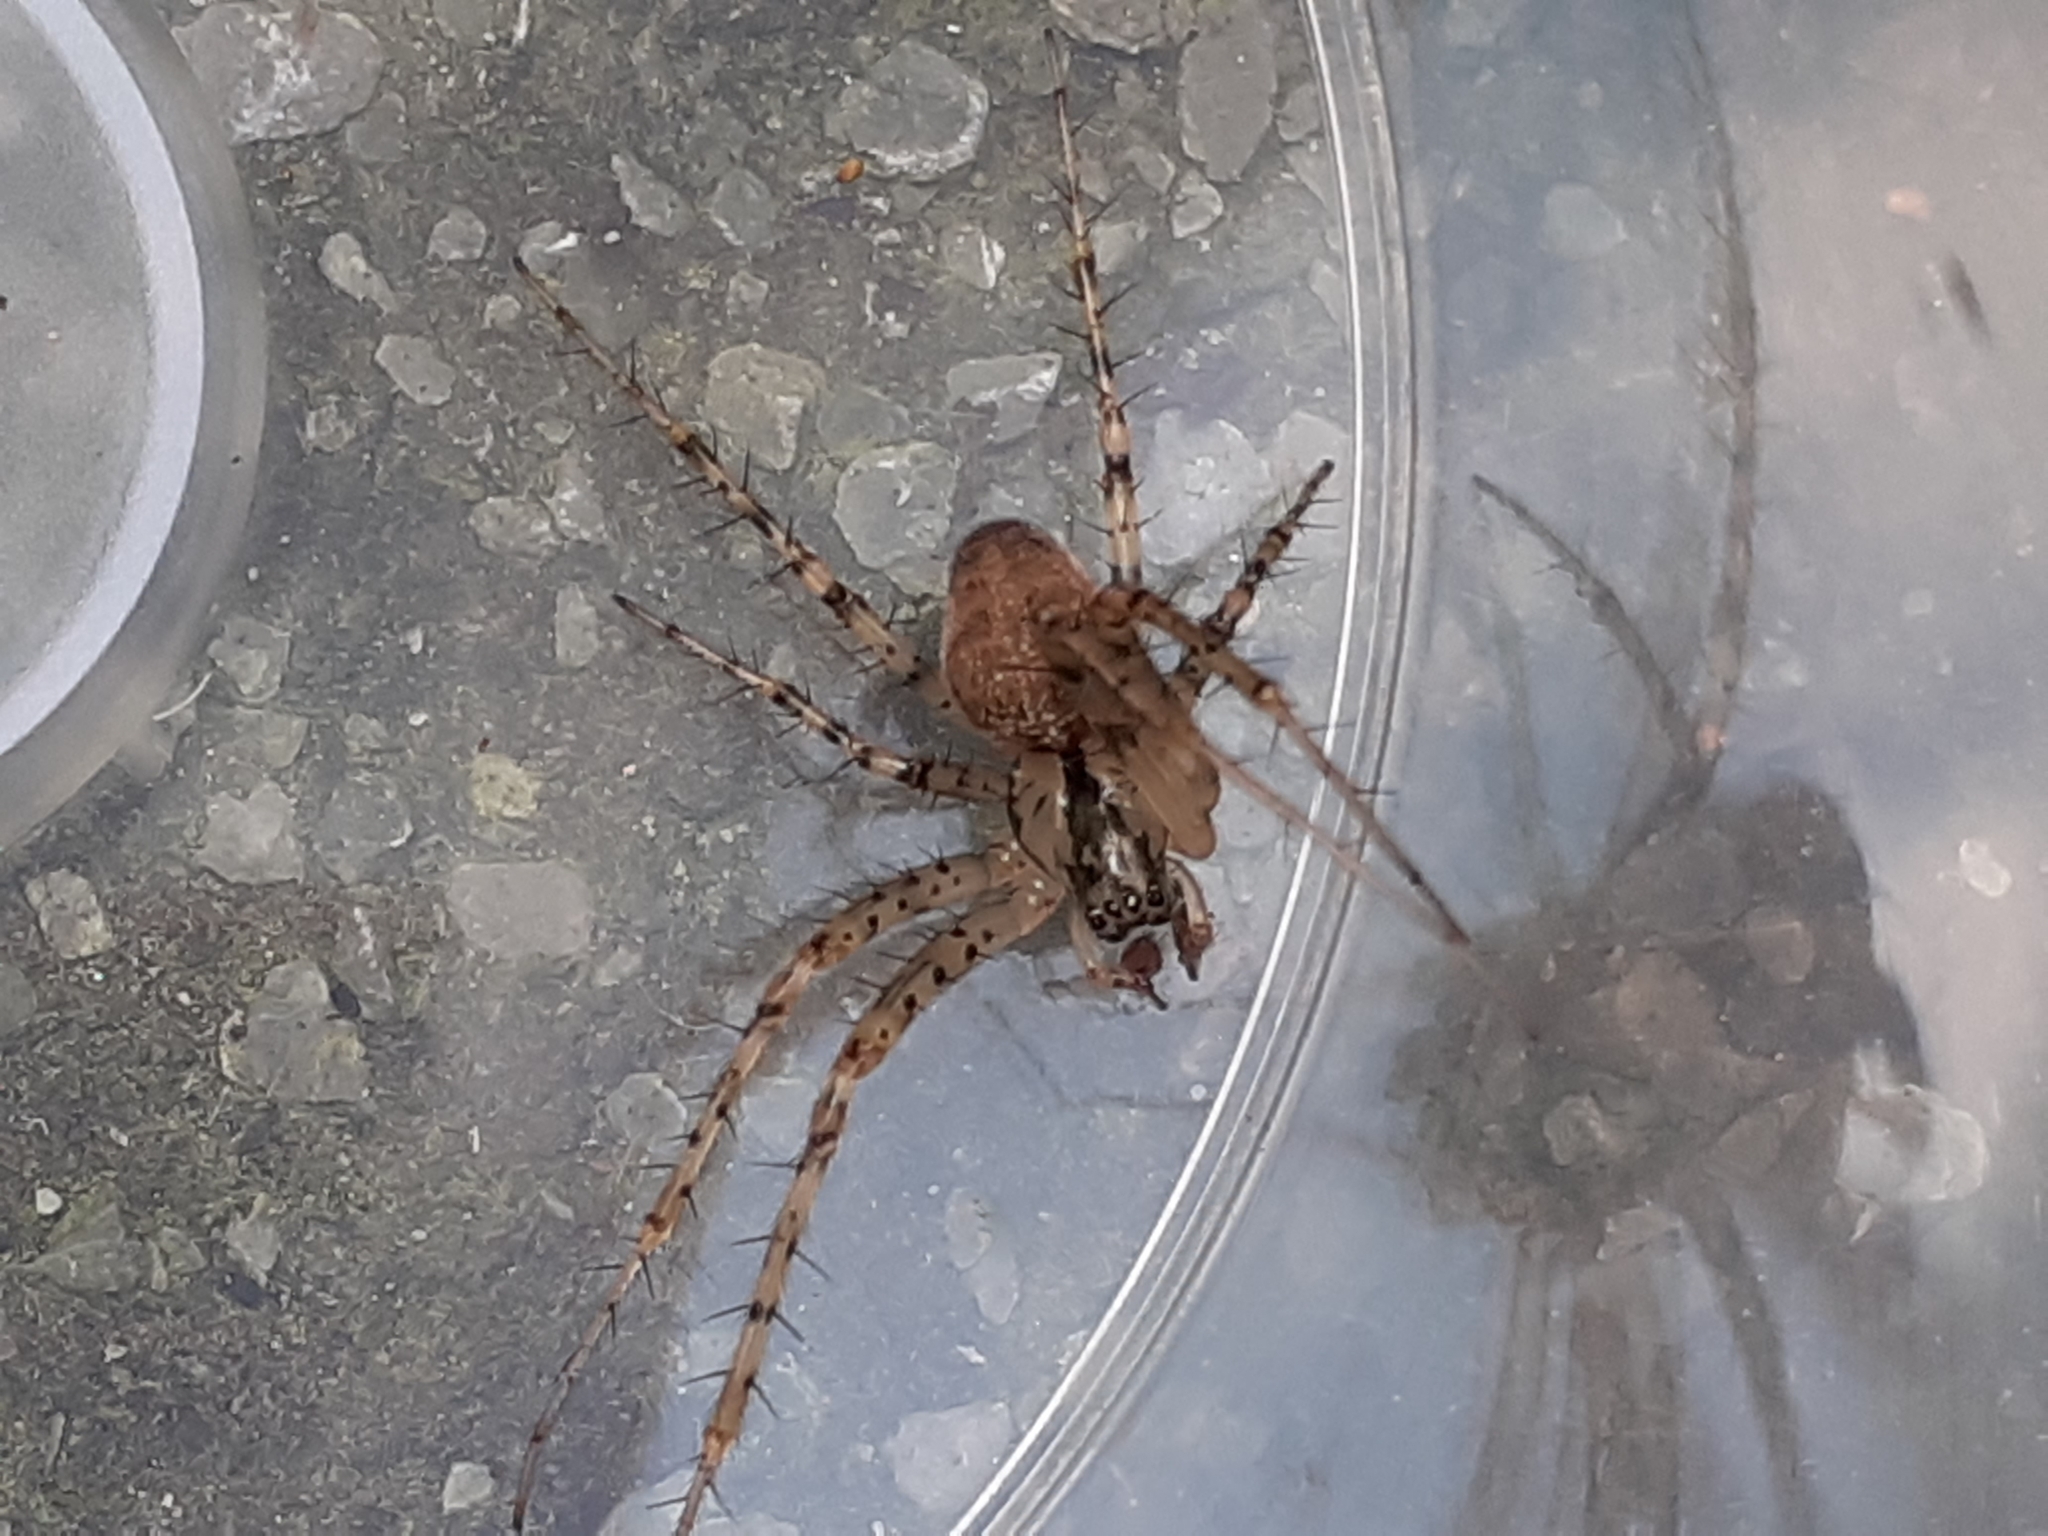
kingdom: Animalia
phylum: Arthropoda
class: Arachnida
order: Araneae
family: Tetragnathidae
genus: Metellina
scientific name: Metellina merianae
